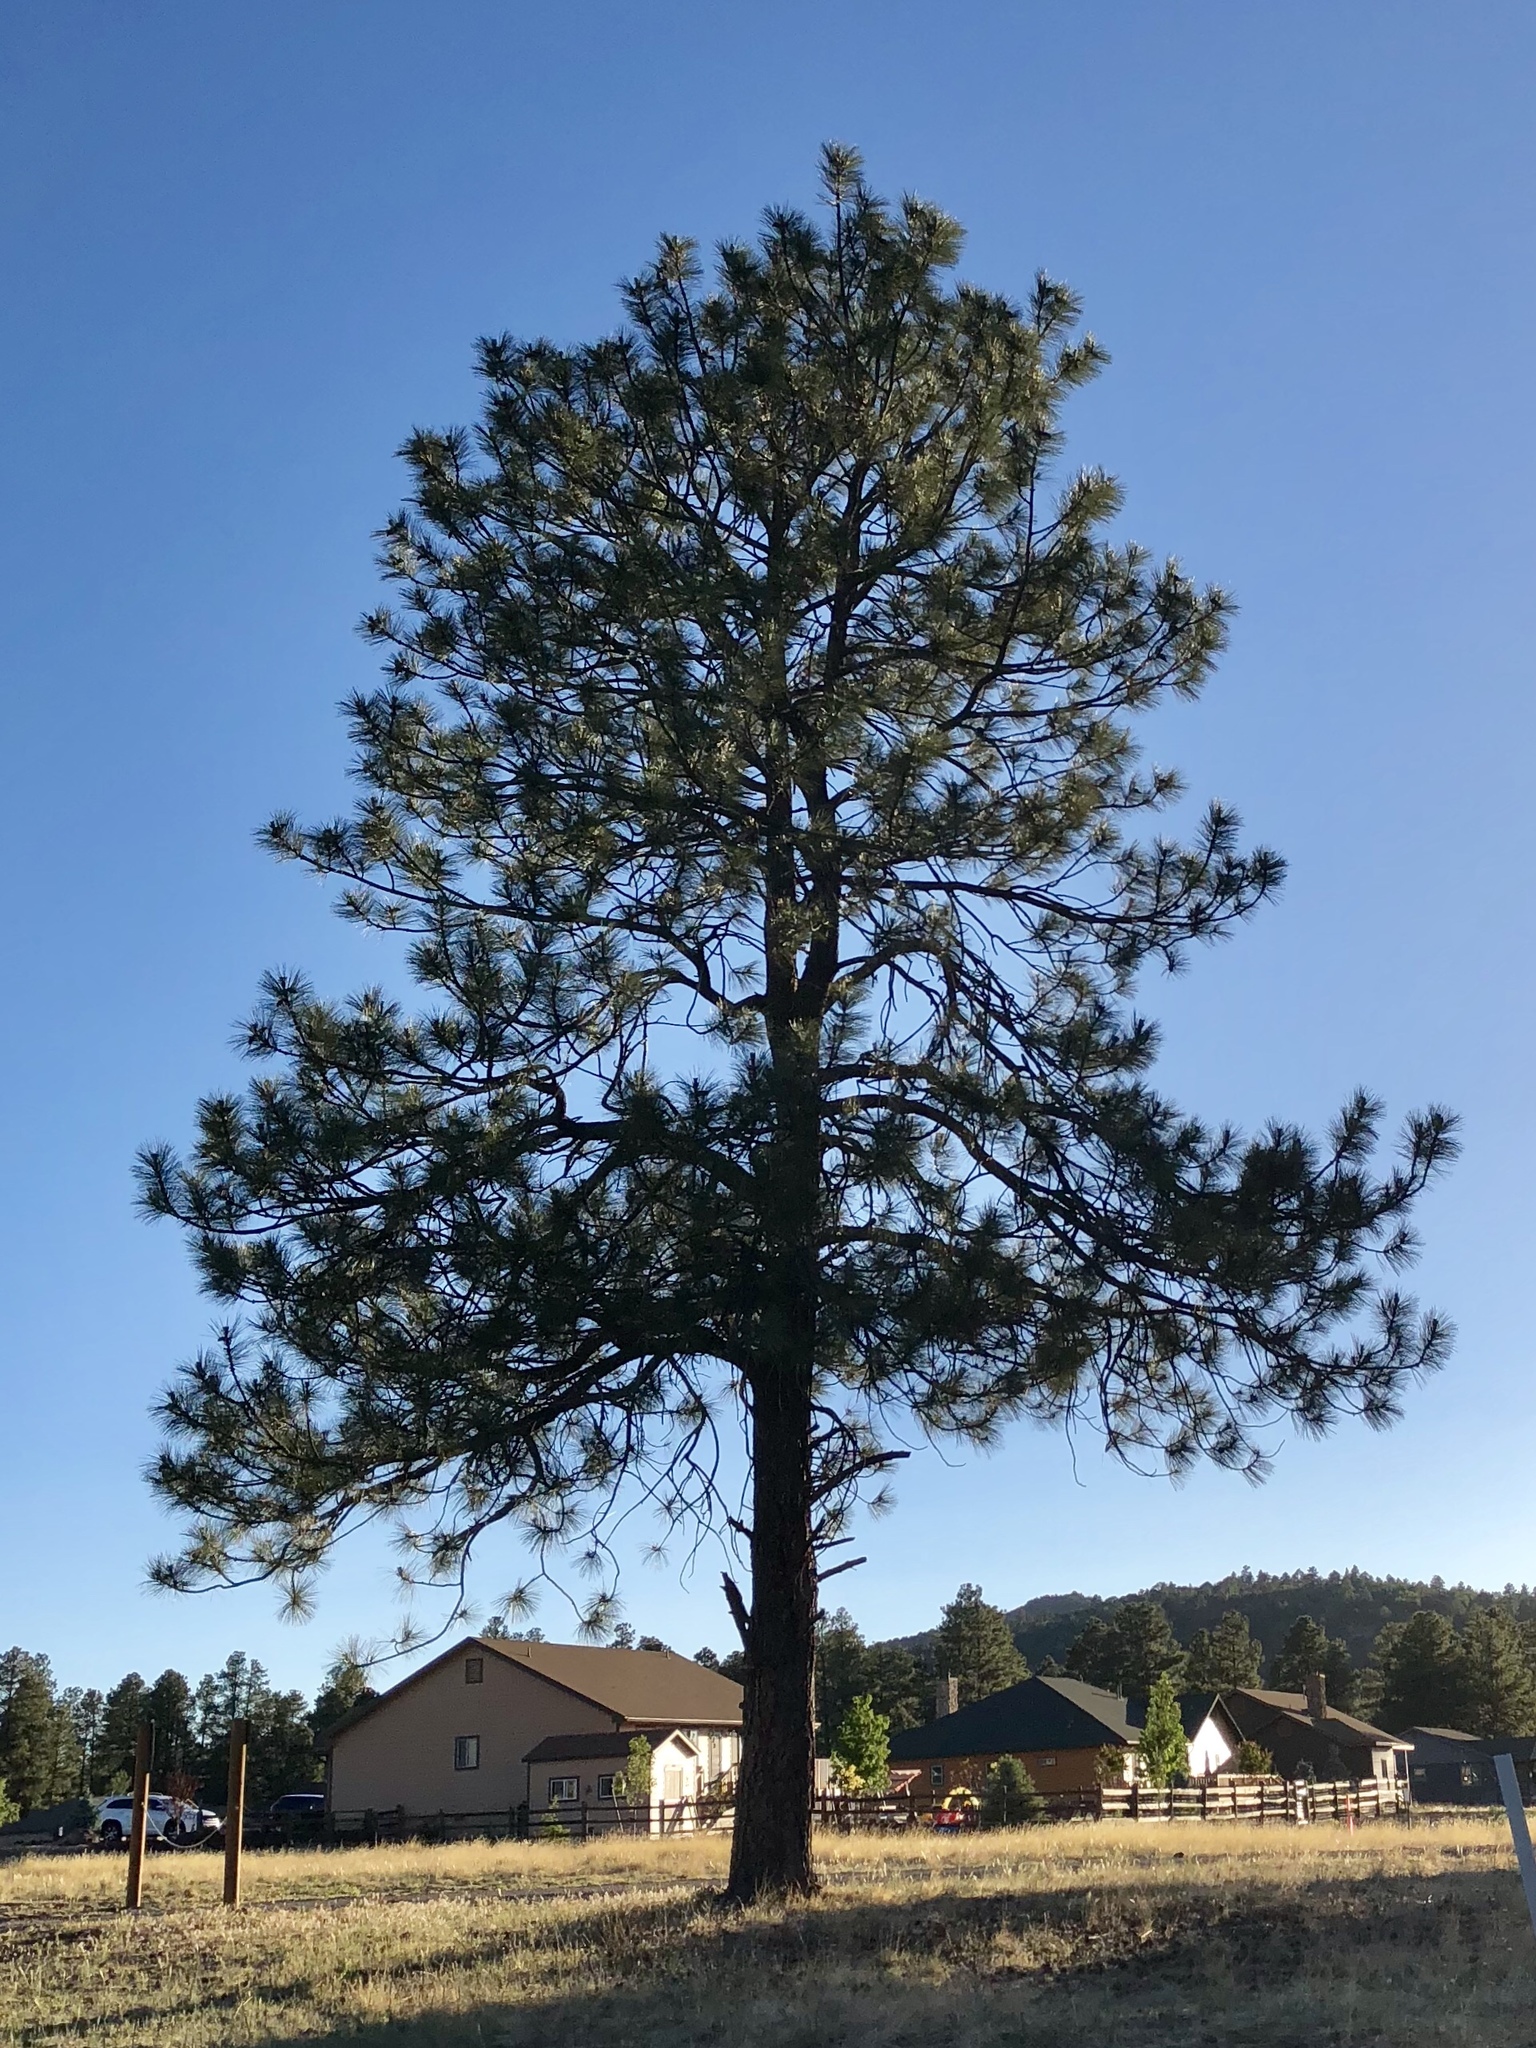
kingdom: Plantae
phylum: Tracheophyta
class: Pinopsida
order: Pinales
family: Pinaceae
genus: Pinus
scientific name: Pinus ponderosa
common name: Western yellow-pine
